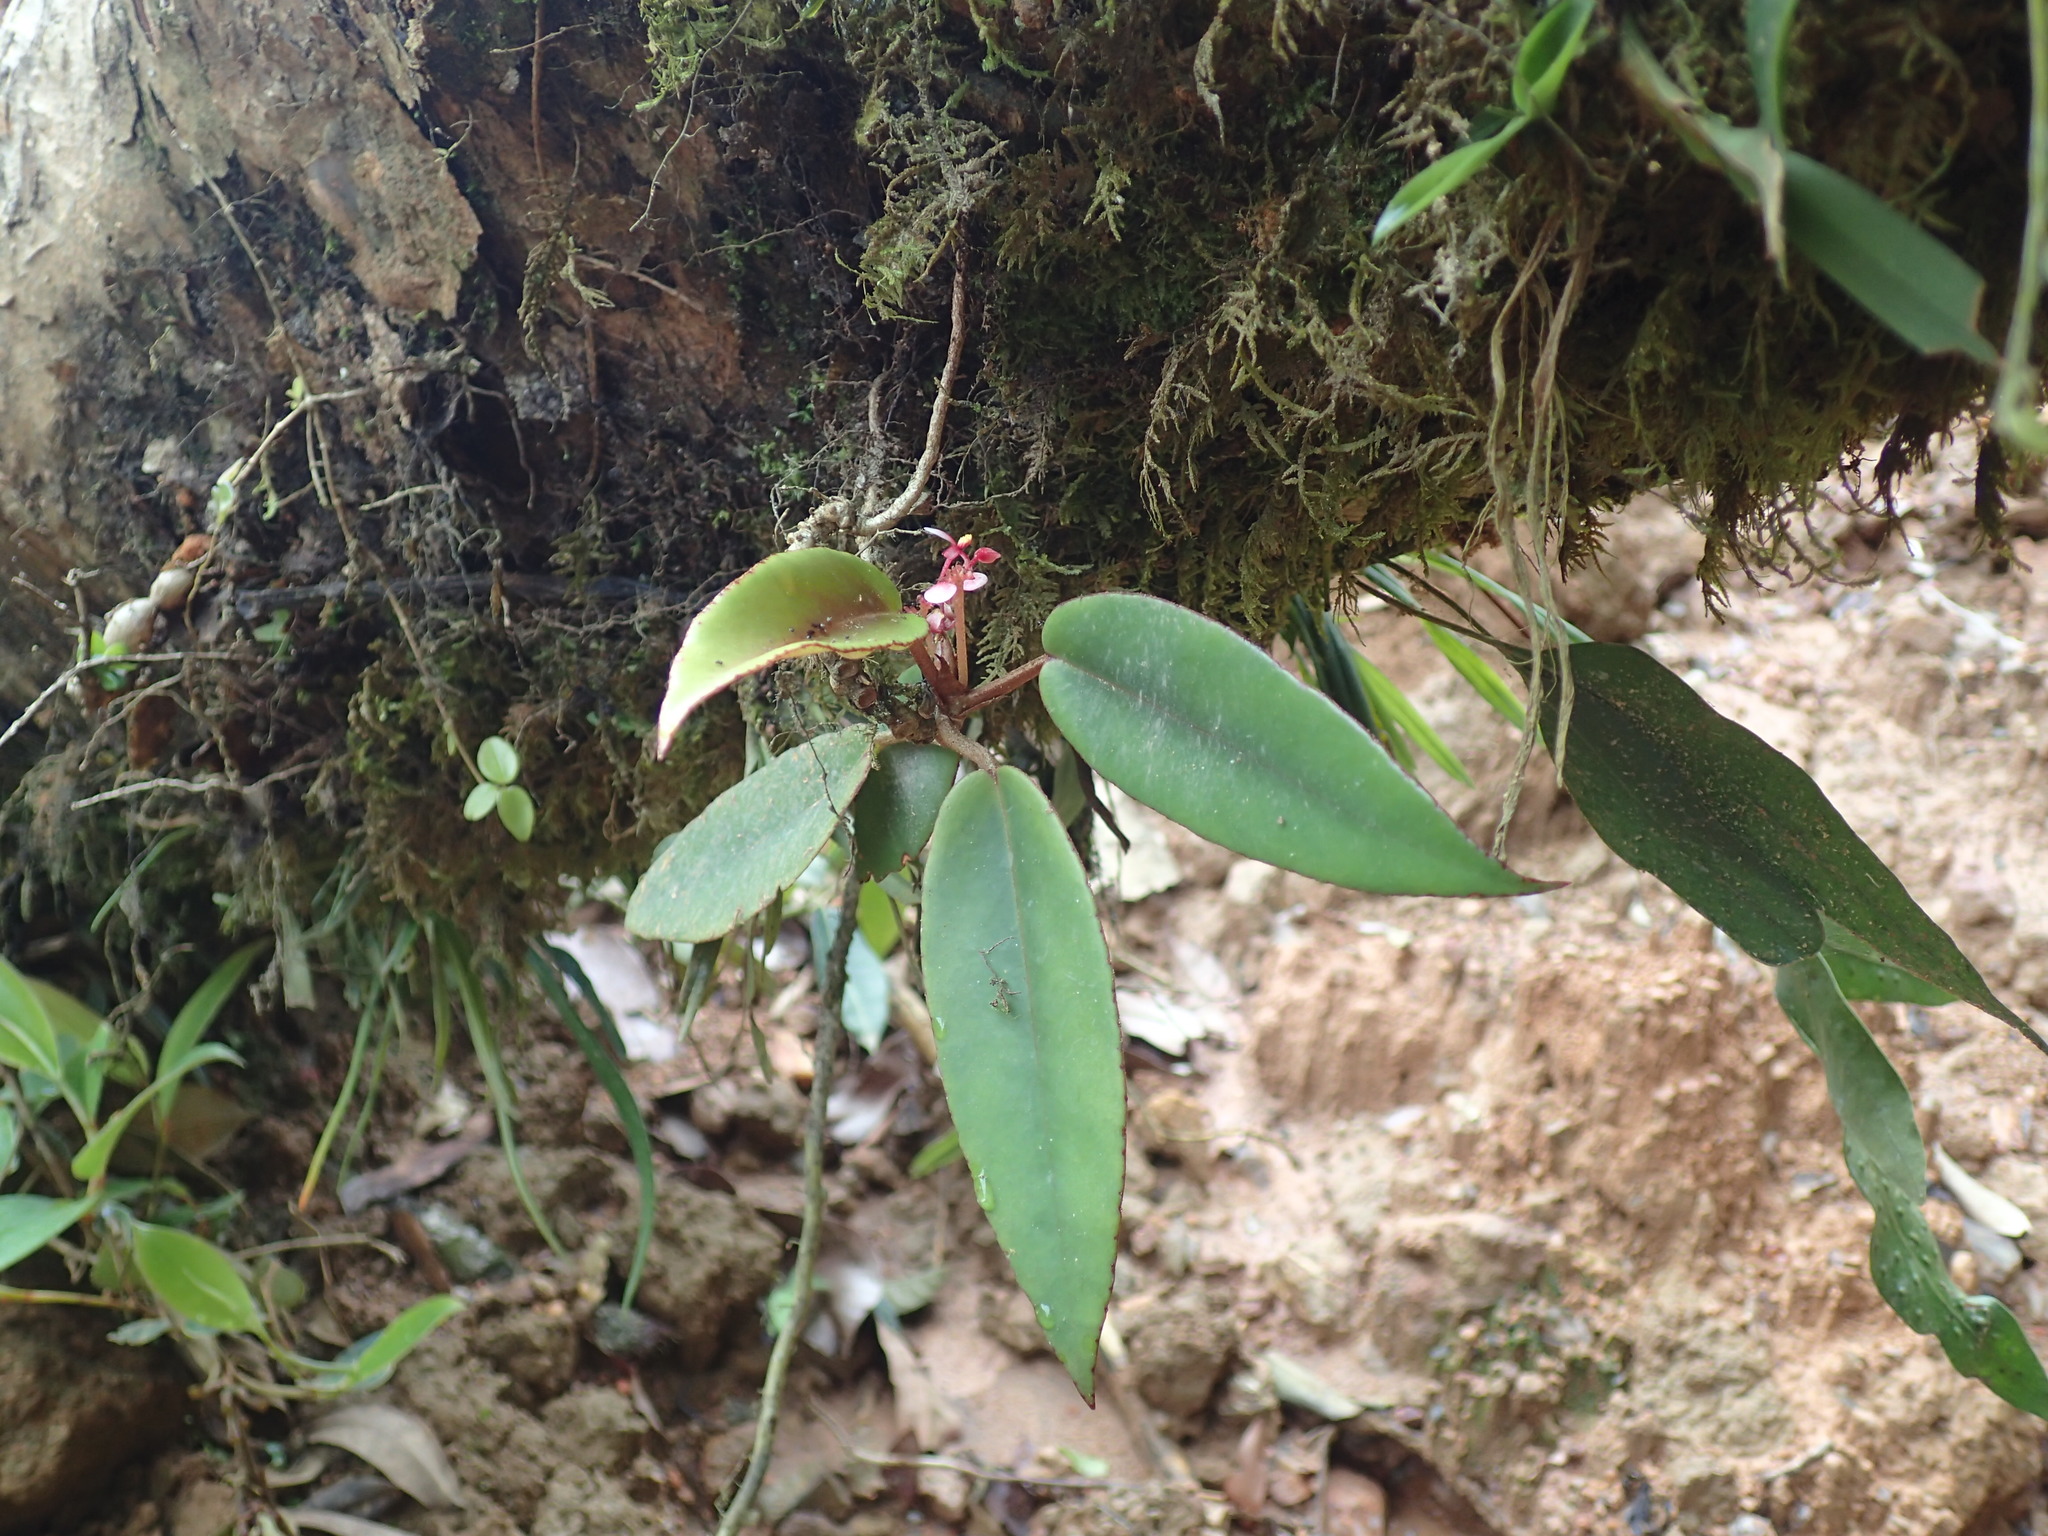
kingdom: Plantae
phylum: Tracheophyta
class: Magnoliopsida
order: Cucurbitales
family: Begoniaceae
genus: Begonia
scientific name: Begonia elaeagnifolia
